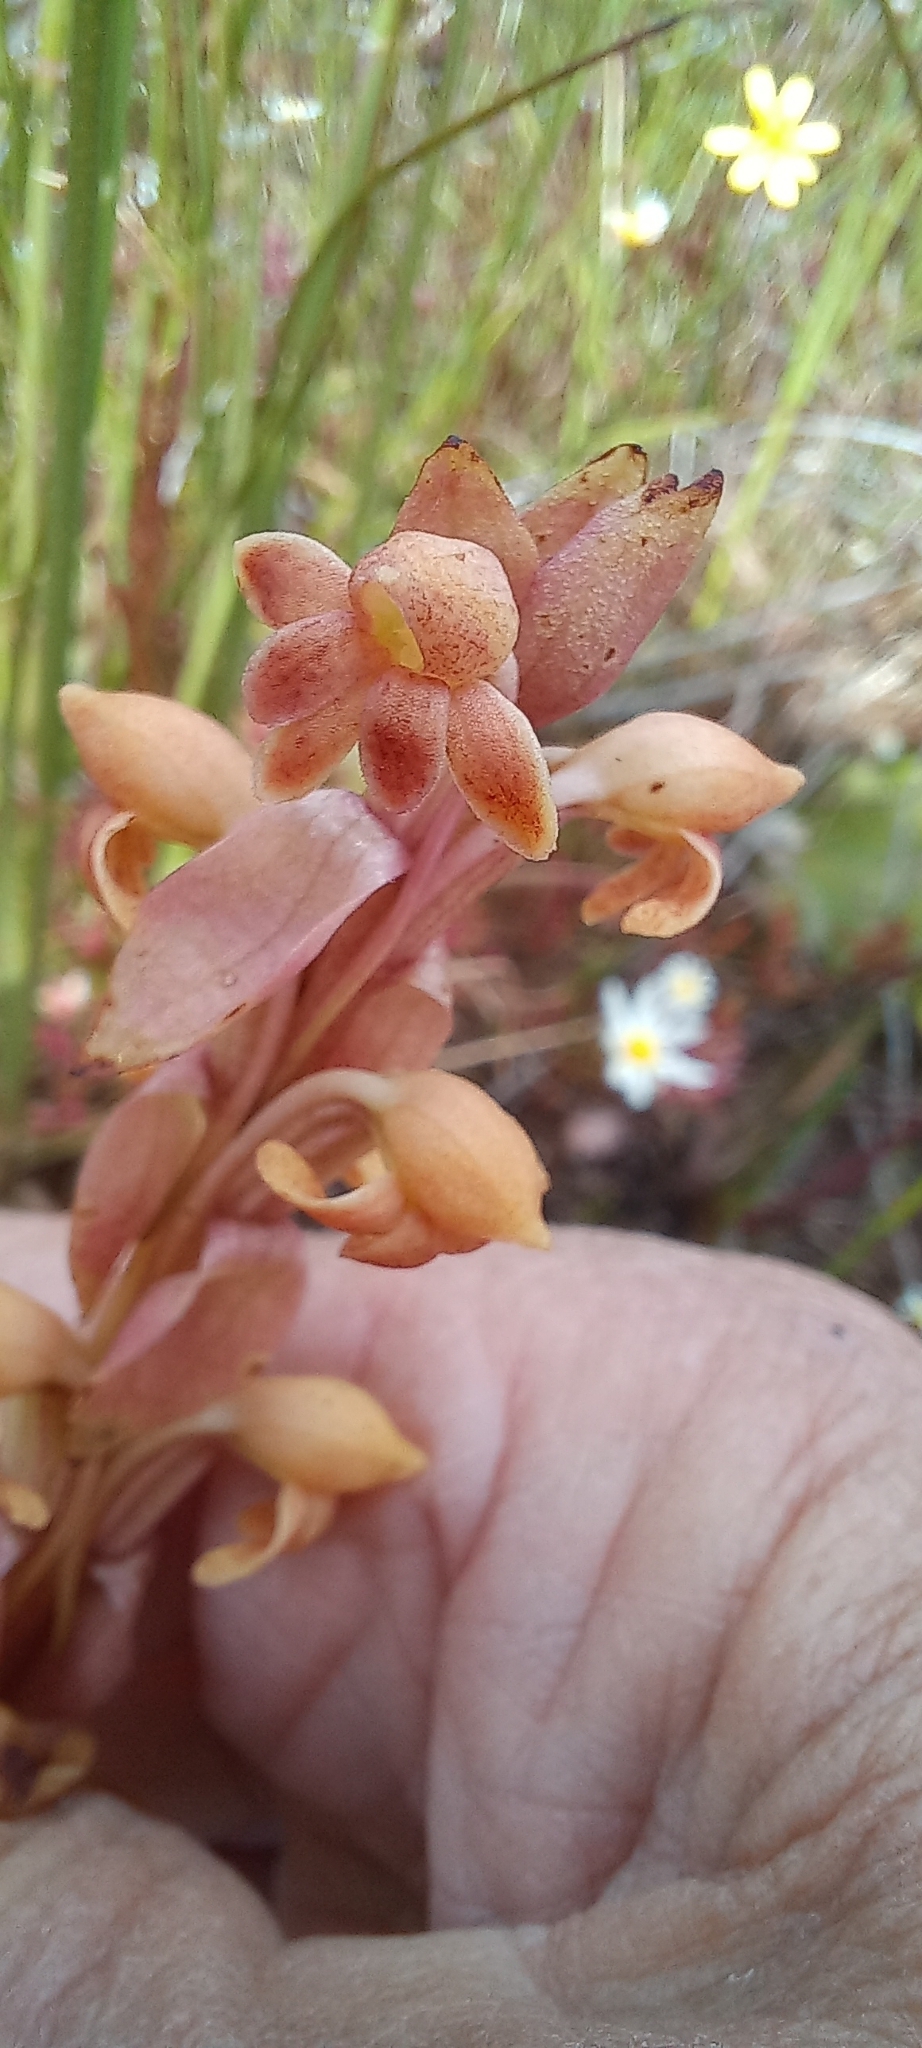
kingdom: Plantae
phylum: Tracheophyta
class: Liliopsida
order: Asparagales
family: Orchidaceae
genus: Satyrium
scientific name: Satyrium bicorne
